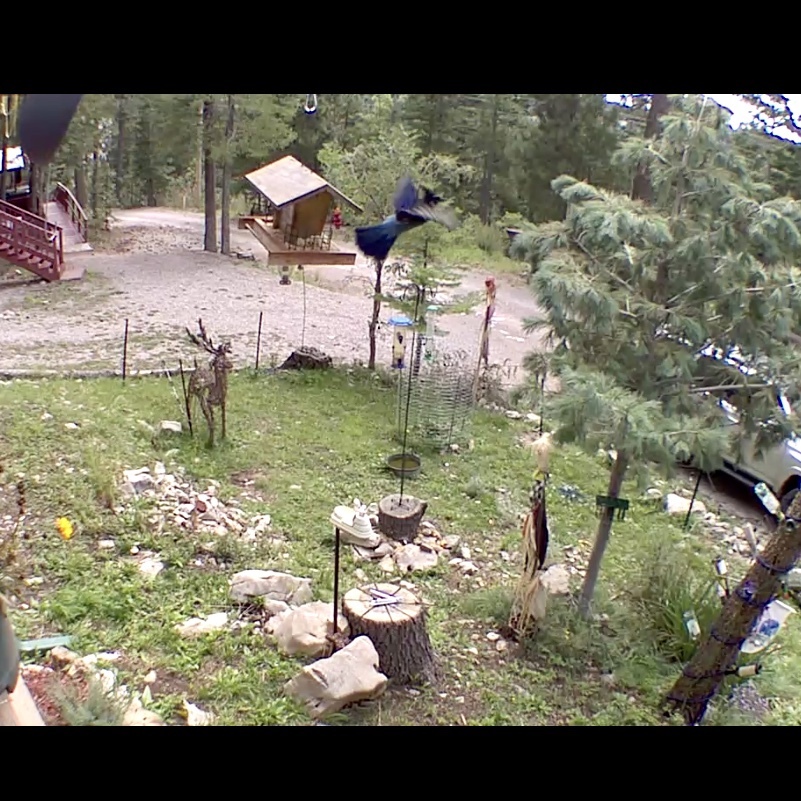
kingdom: Animalia
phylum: Chordata
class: Aves
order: Passeriformes
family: Corvidae
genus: Cyanocitta
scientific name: Cyanocitta stelleri
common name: Steller's jay
